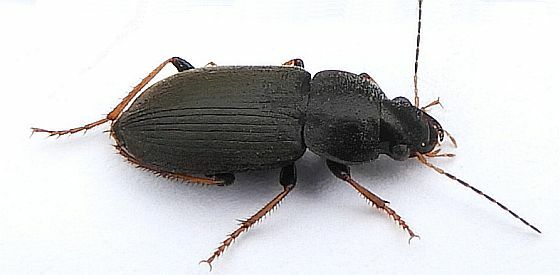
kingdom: Animalia
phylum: Arthropoda
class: Insecta
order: Coleoptera
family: Carabidae
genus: Amphasia
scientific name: Amphasia sericea
